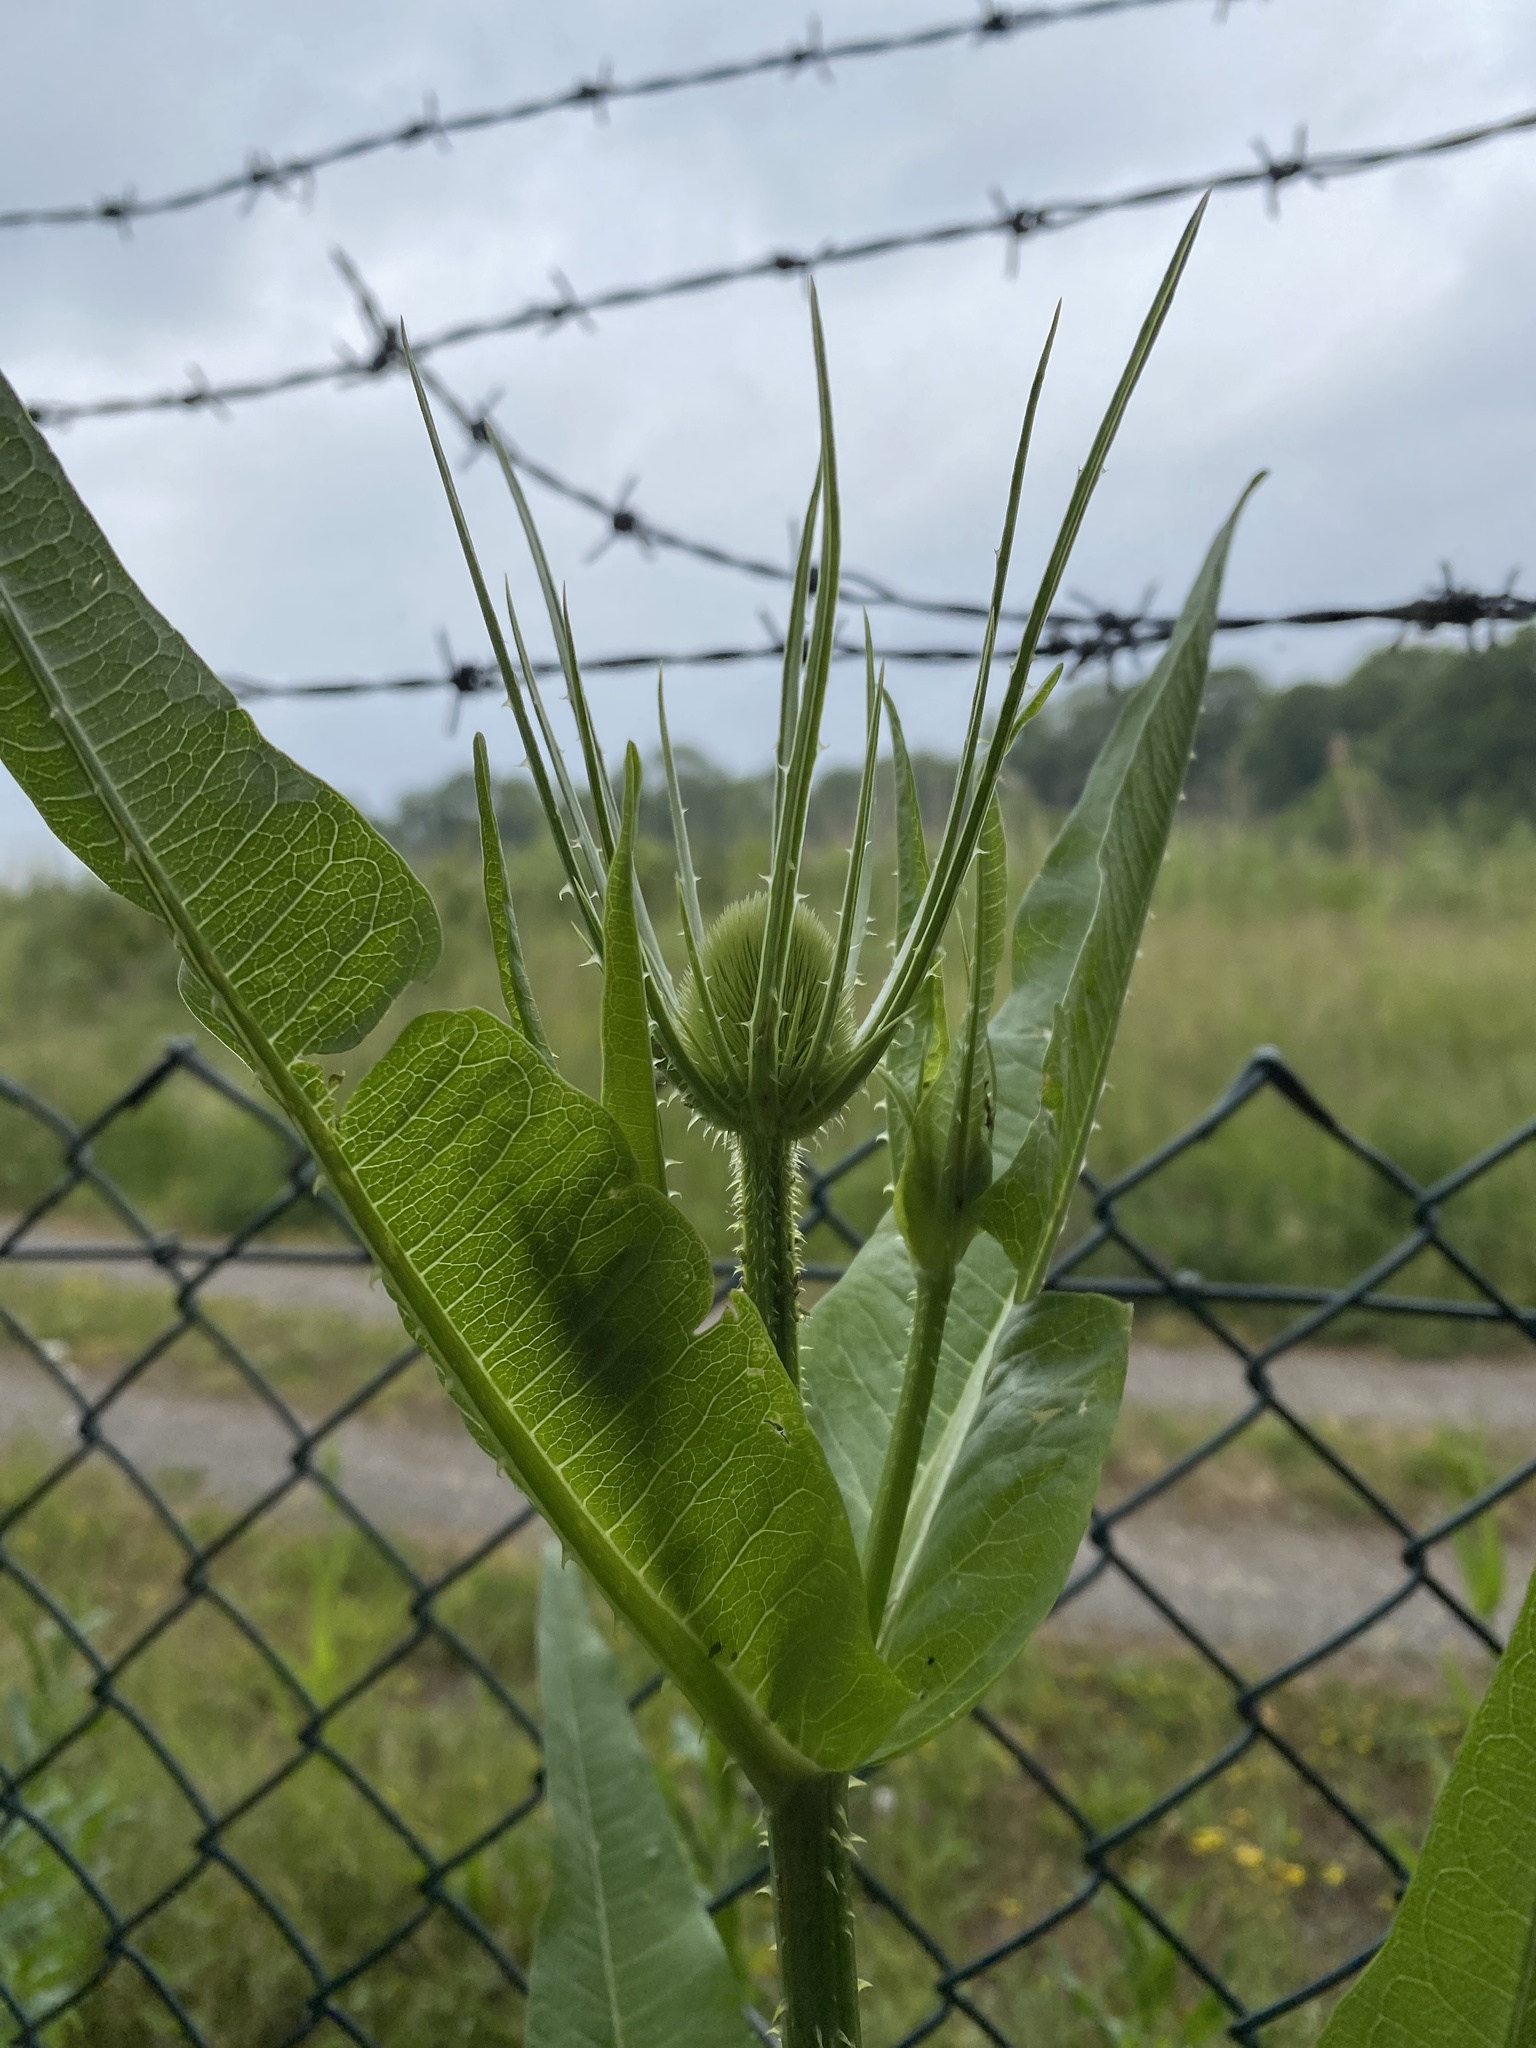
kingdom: Plantae
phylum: Tracheophyta
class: Magnoliopsida
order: Dipsacales
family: Caprifoliaceae
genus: Dipsacus
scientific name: Dipsacus fullonum
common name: Teasel
